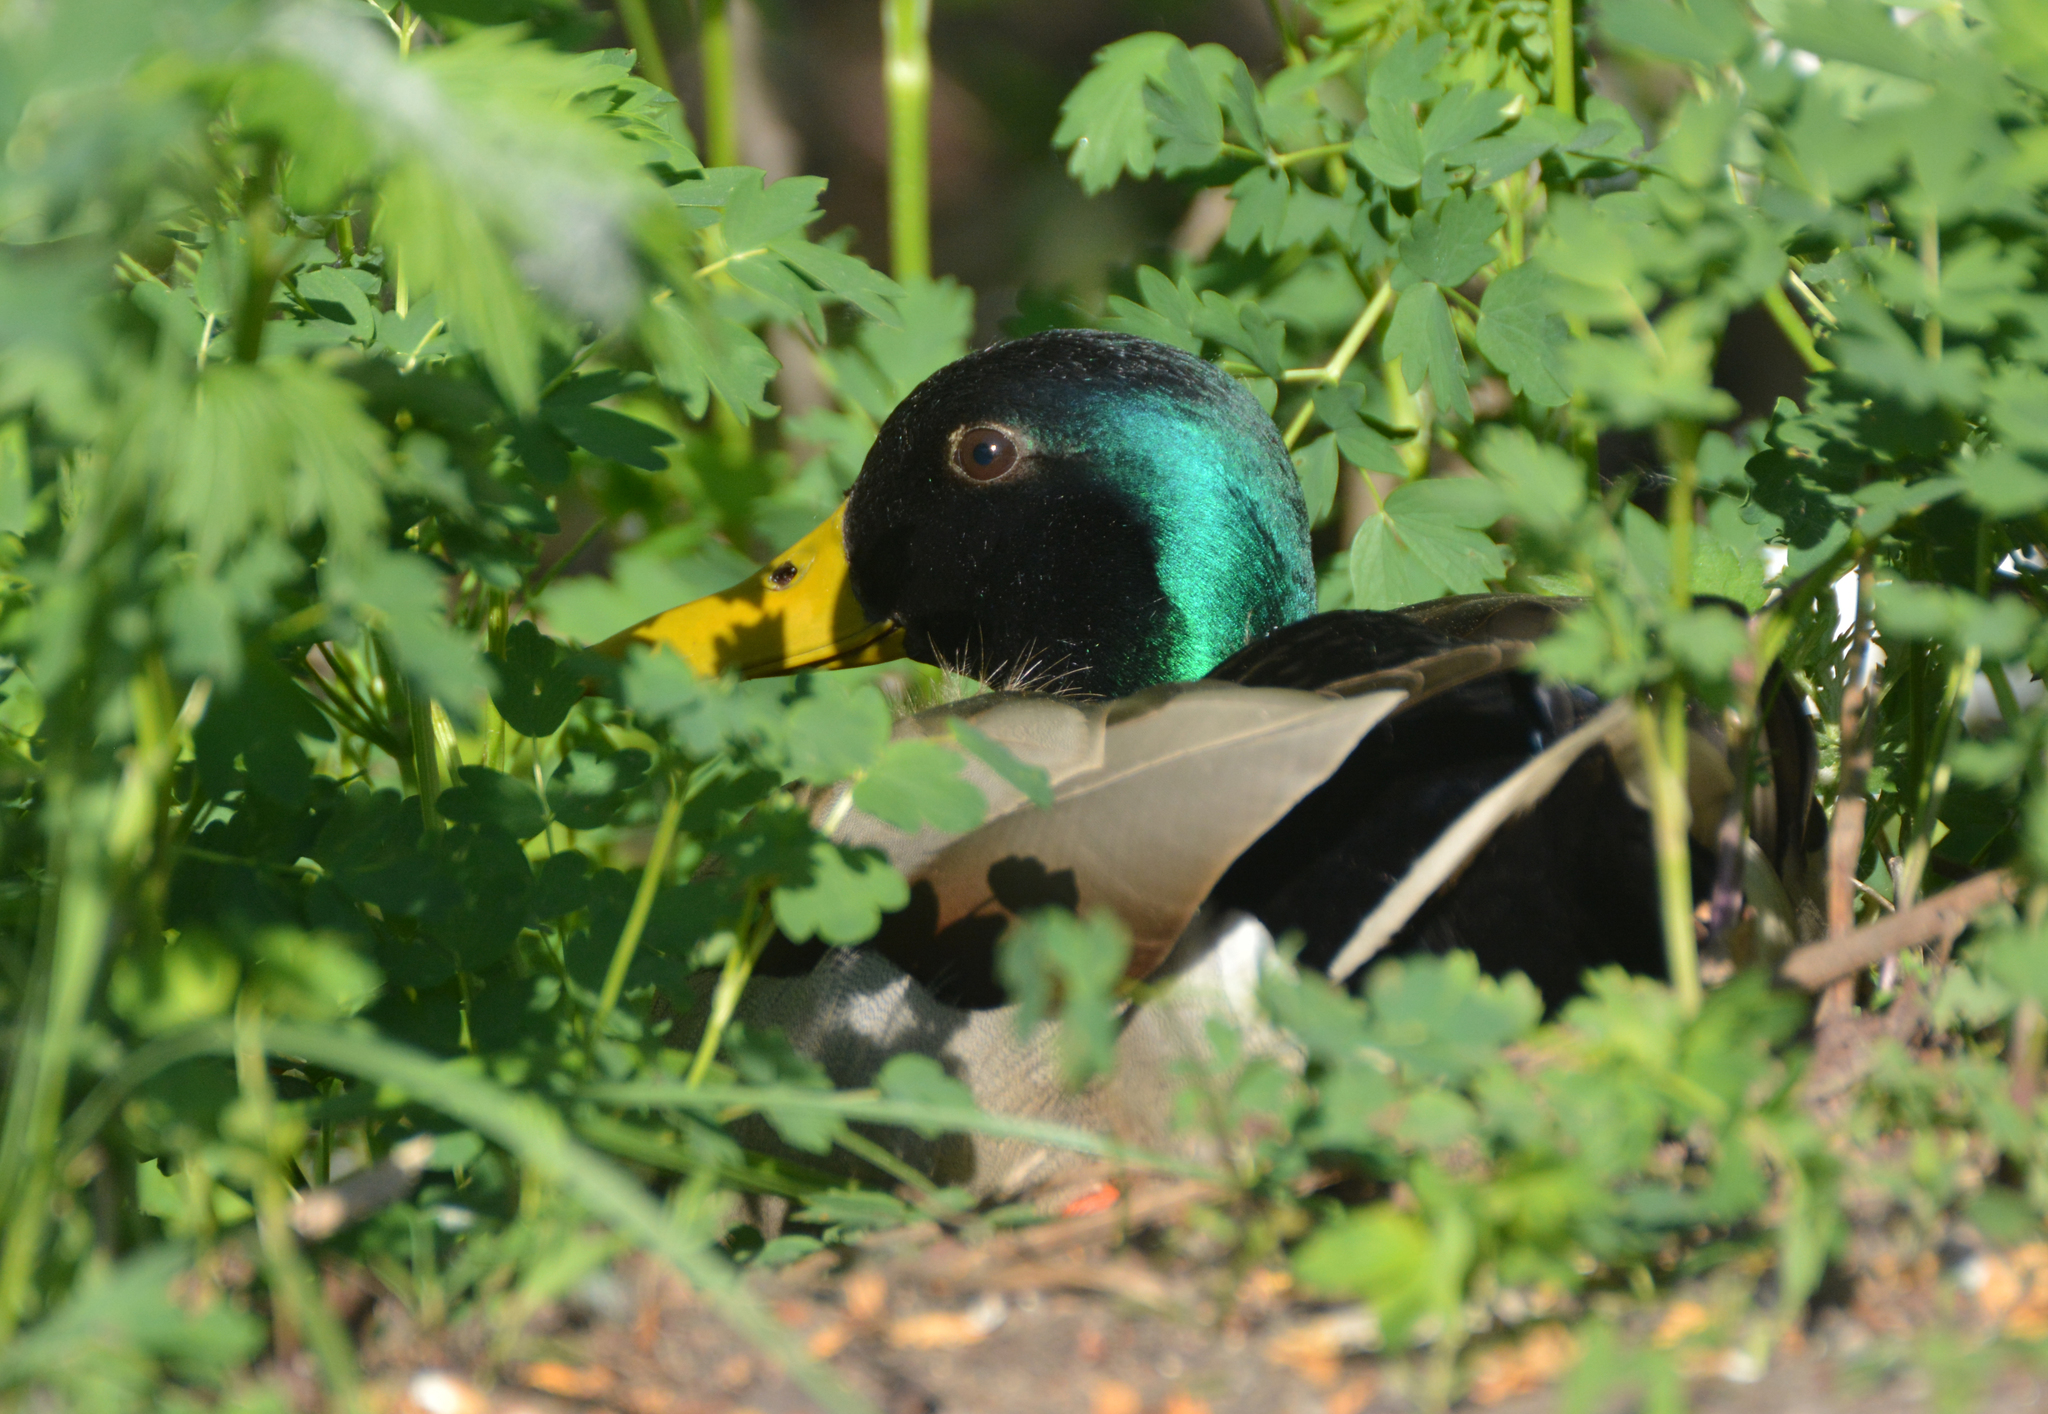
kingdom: Animalia
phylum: Chordata
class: Aves
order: Anseriformes
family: Anatidae
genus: Anas
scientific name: Anas platyrhynchos
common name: Mallard
